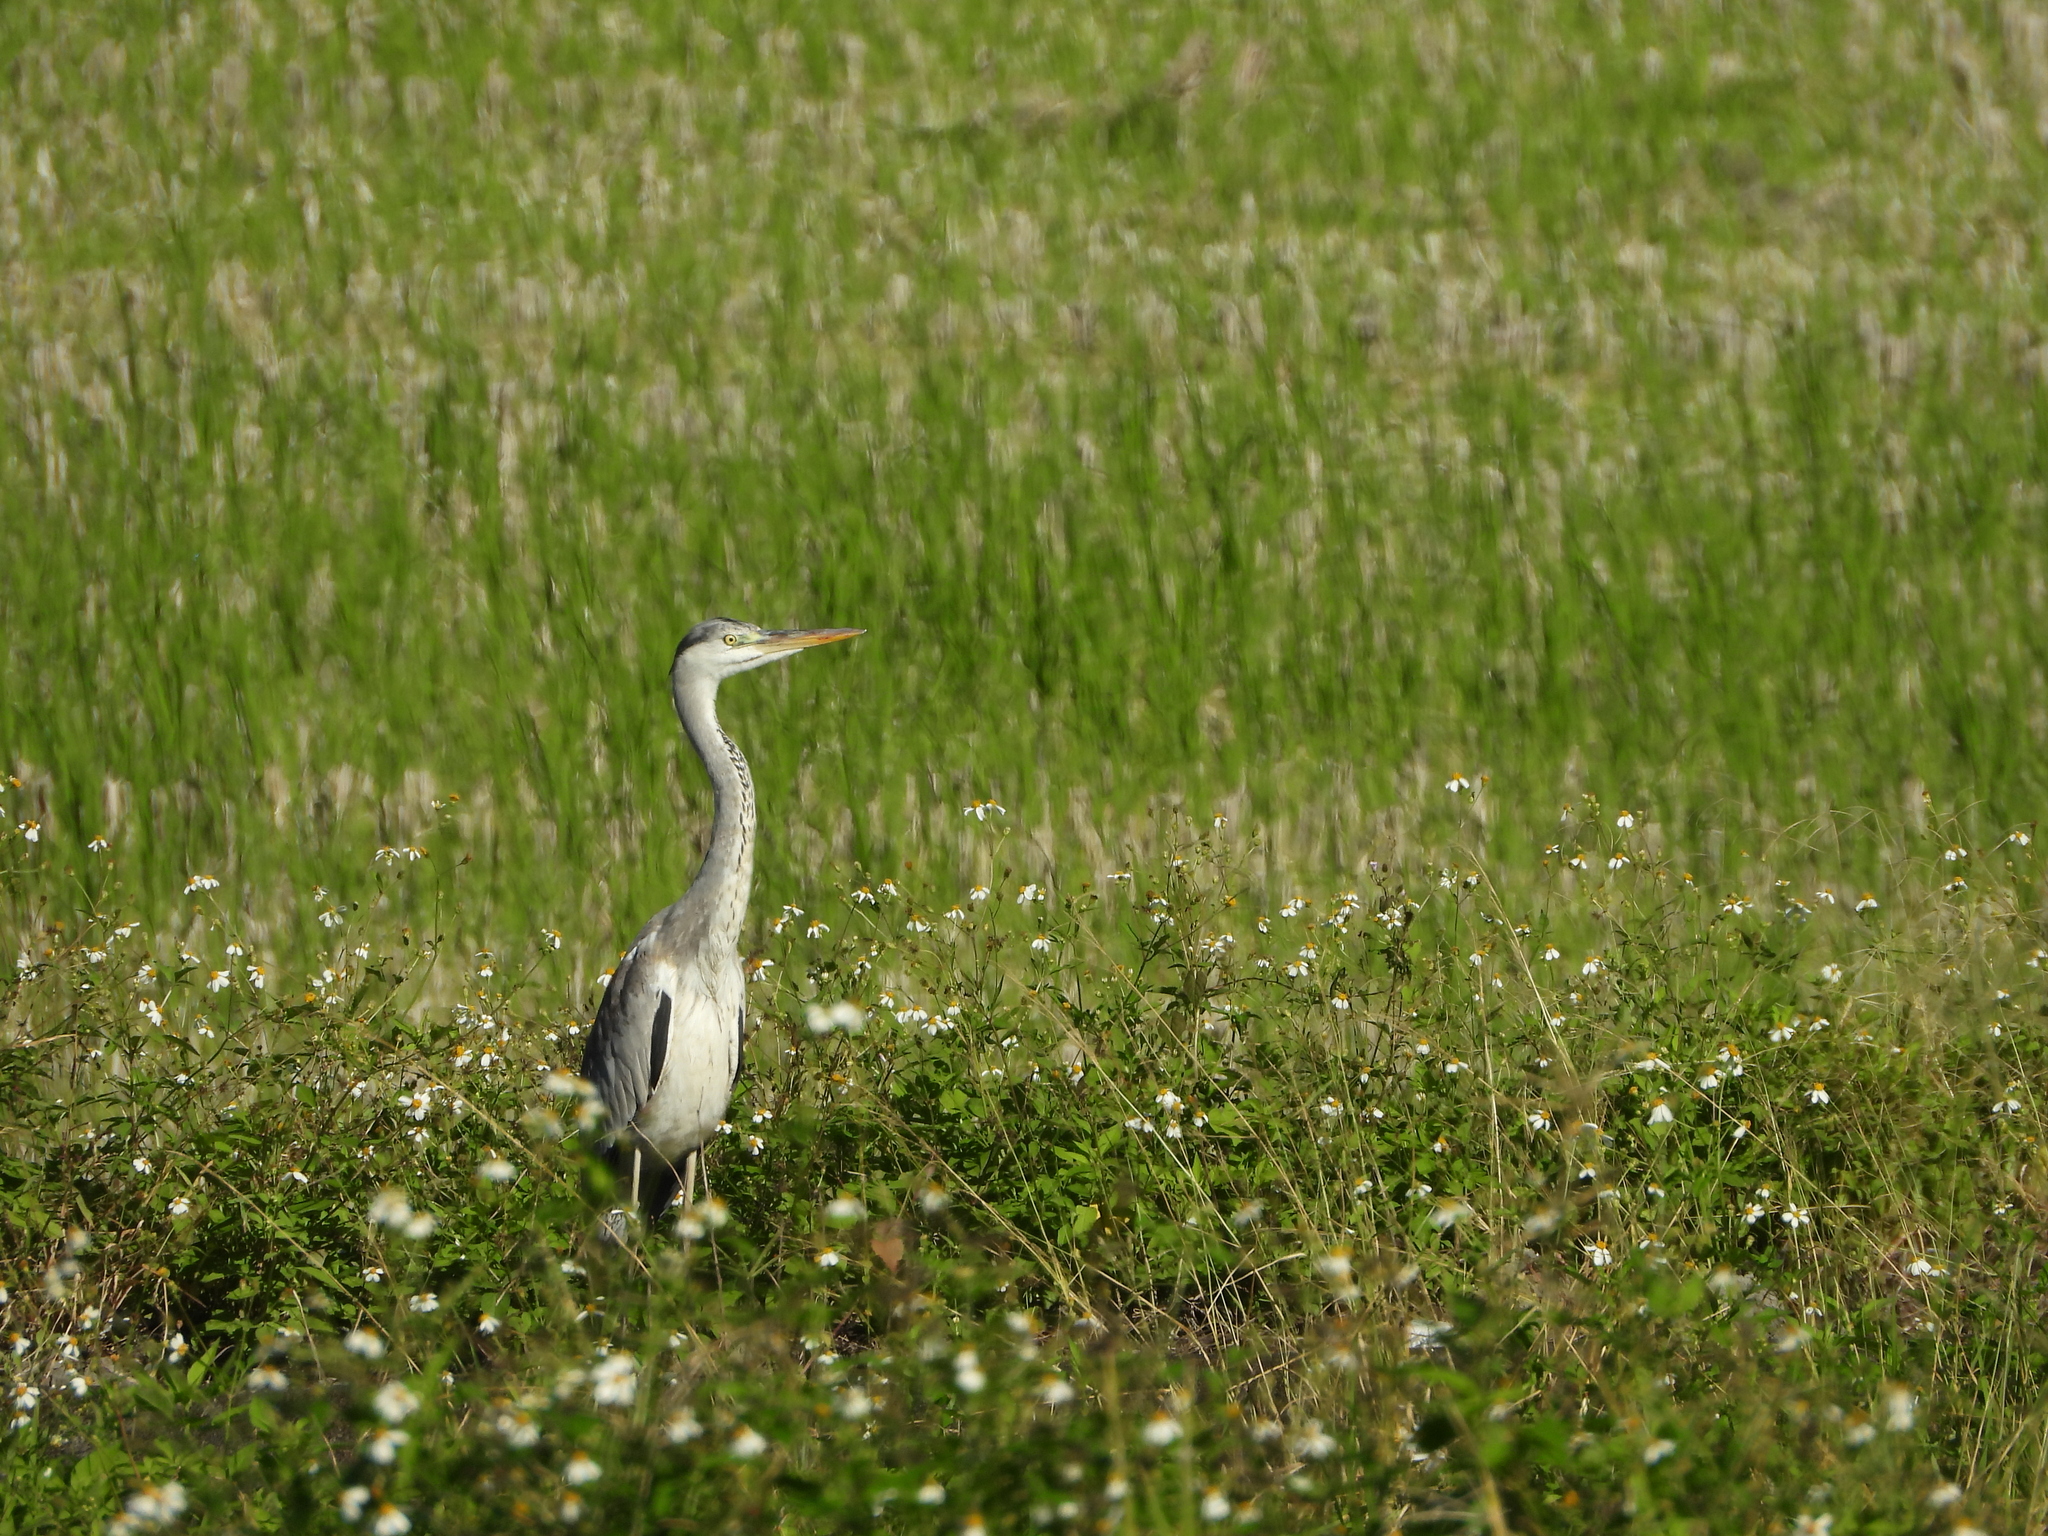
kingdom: Animalia
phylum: Chordata
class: Aves
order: Pelecaniformes
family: Ardeidae
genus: Ardea
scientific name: Ardea cinerea
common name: Grey heron
